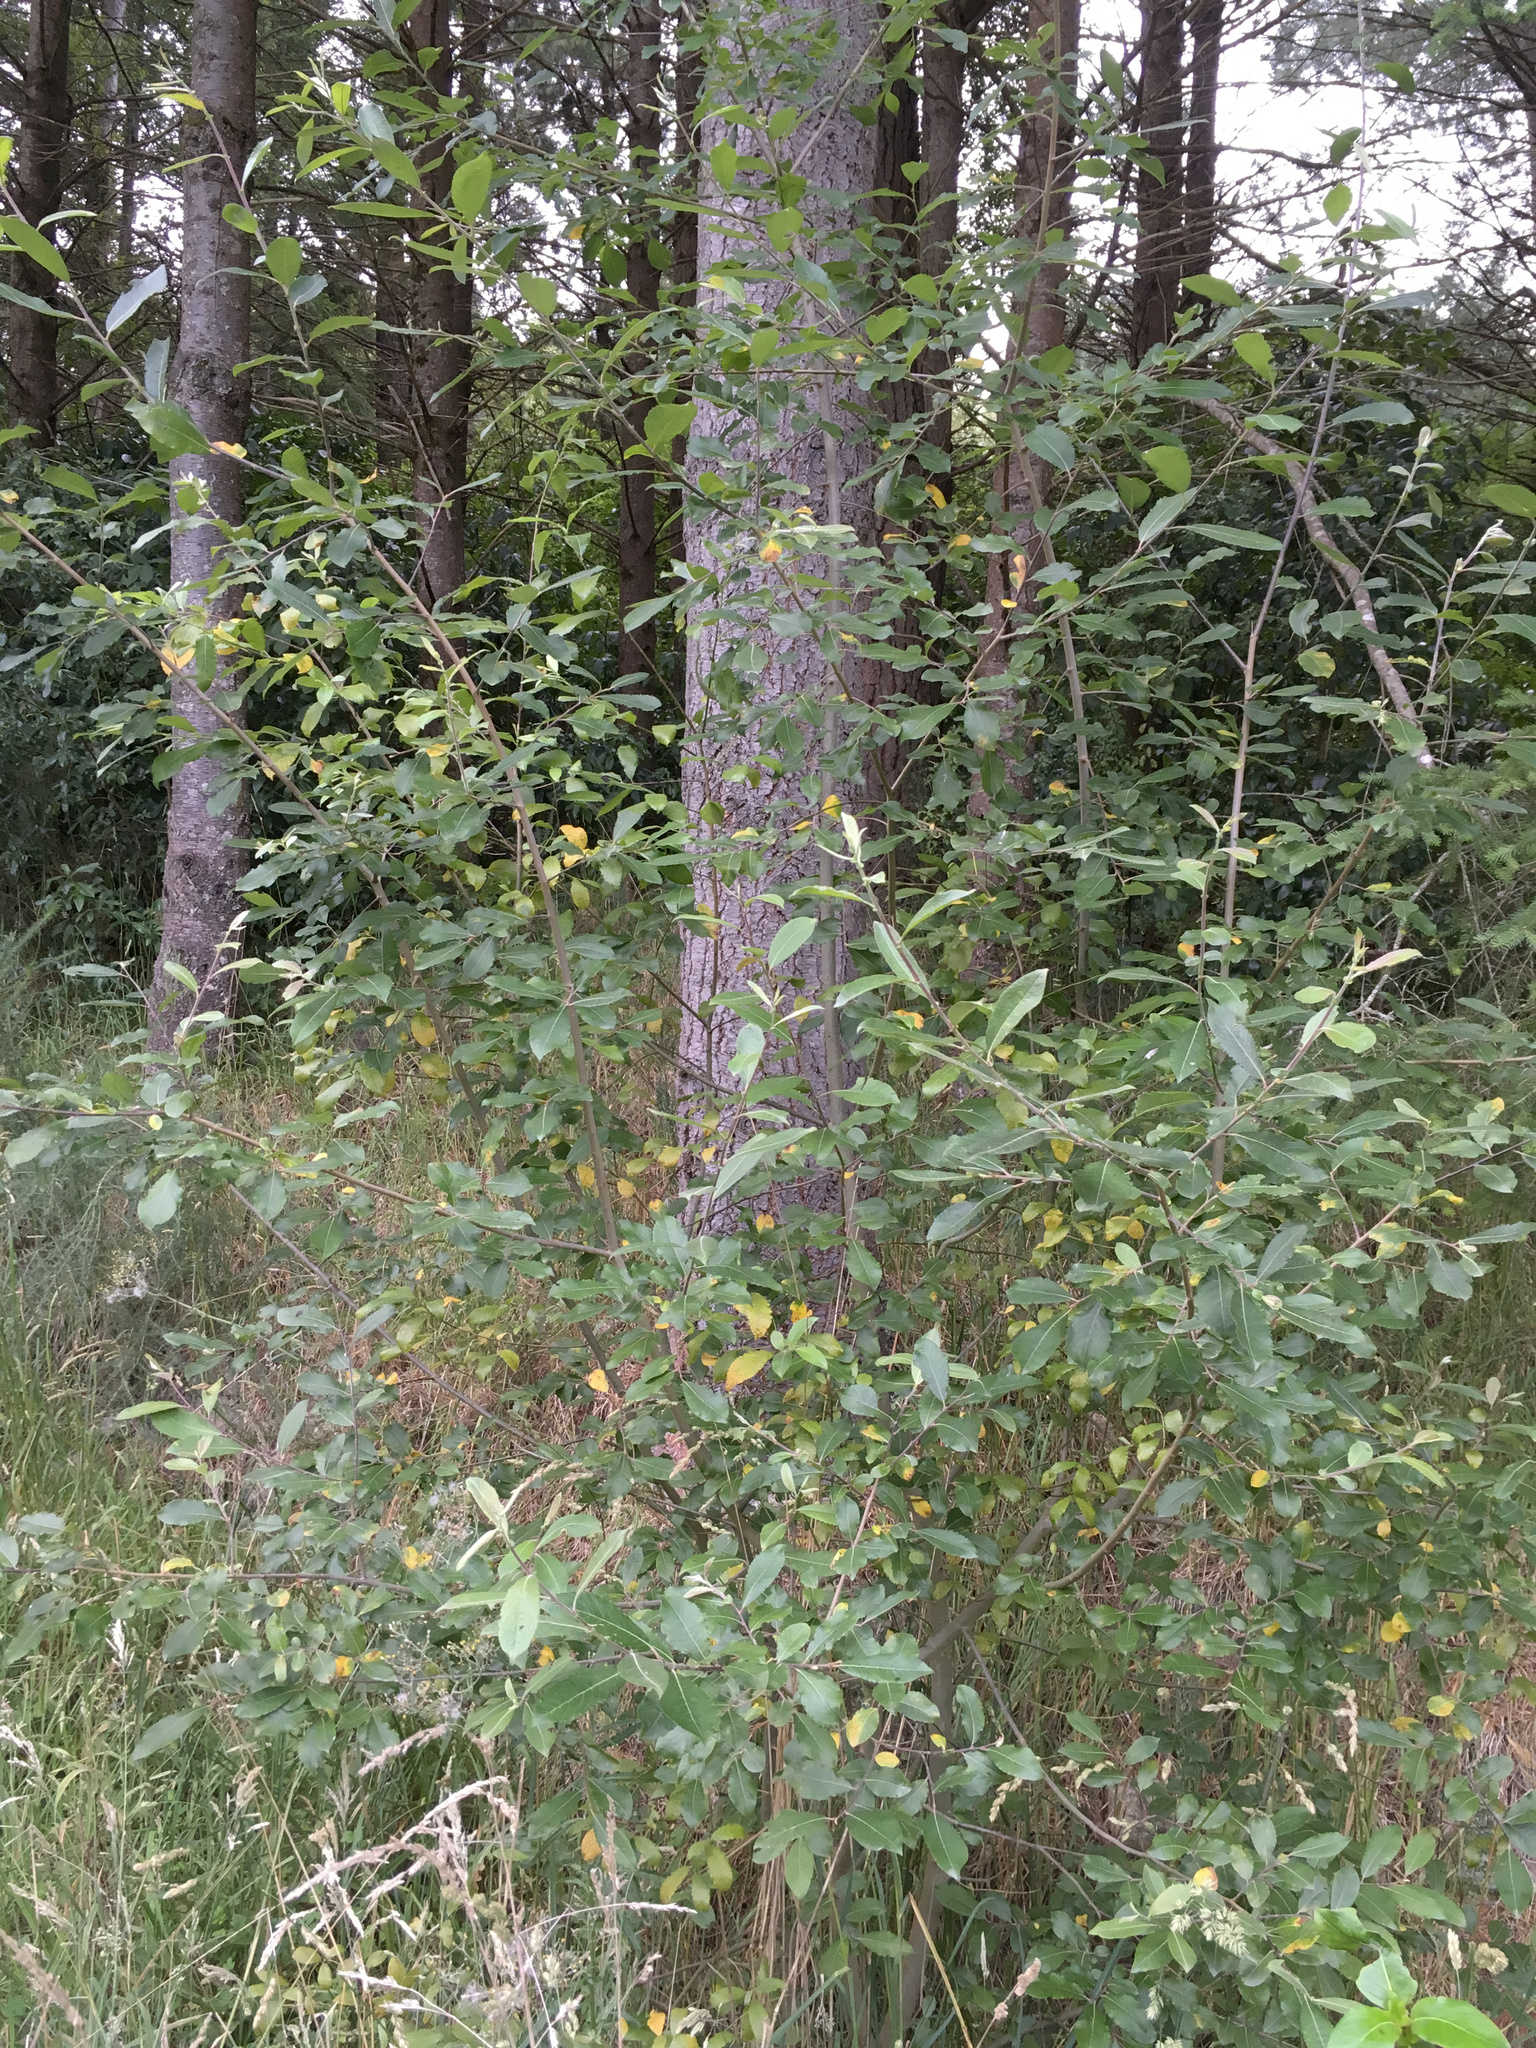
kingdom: Plantae
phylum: Tracheophyta
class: Magnoliopsida
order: Malpighiales
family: Salicaceae
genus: Salix
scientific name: Salix cinerea
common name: Common sallow
